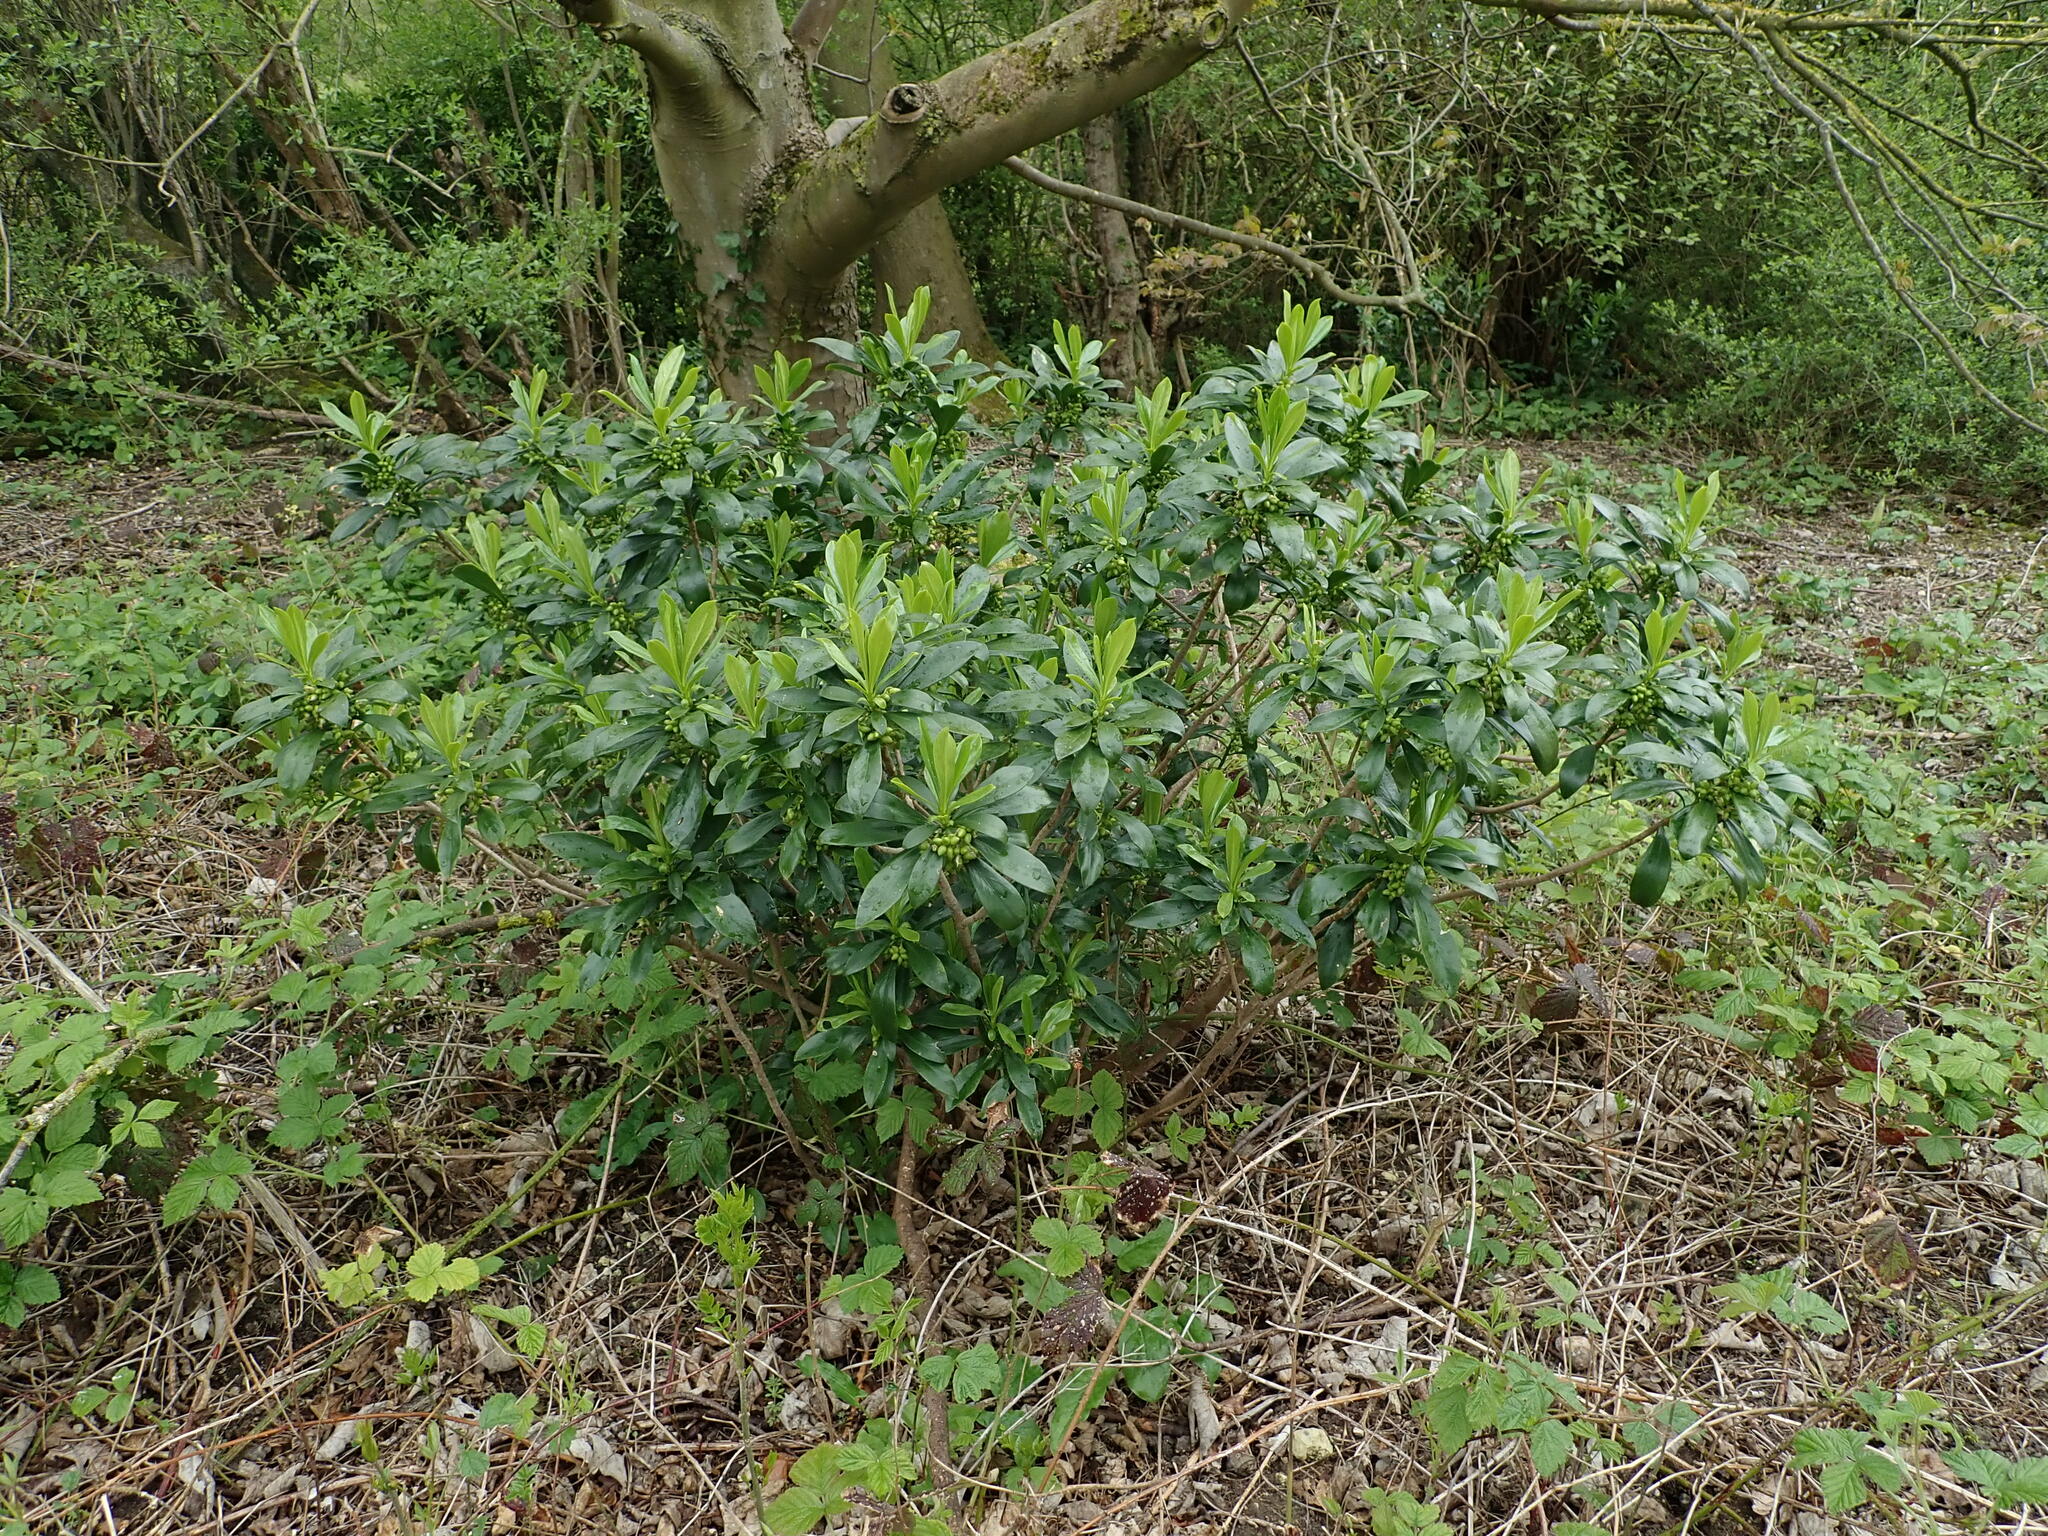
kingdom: Plantae
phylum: Tracheophyta
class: Magnoliopsida
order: Malvales
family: Thymelaeaceae
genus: Daphne
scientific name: Daphne laureola
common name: Spurge-laurel
